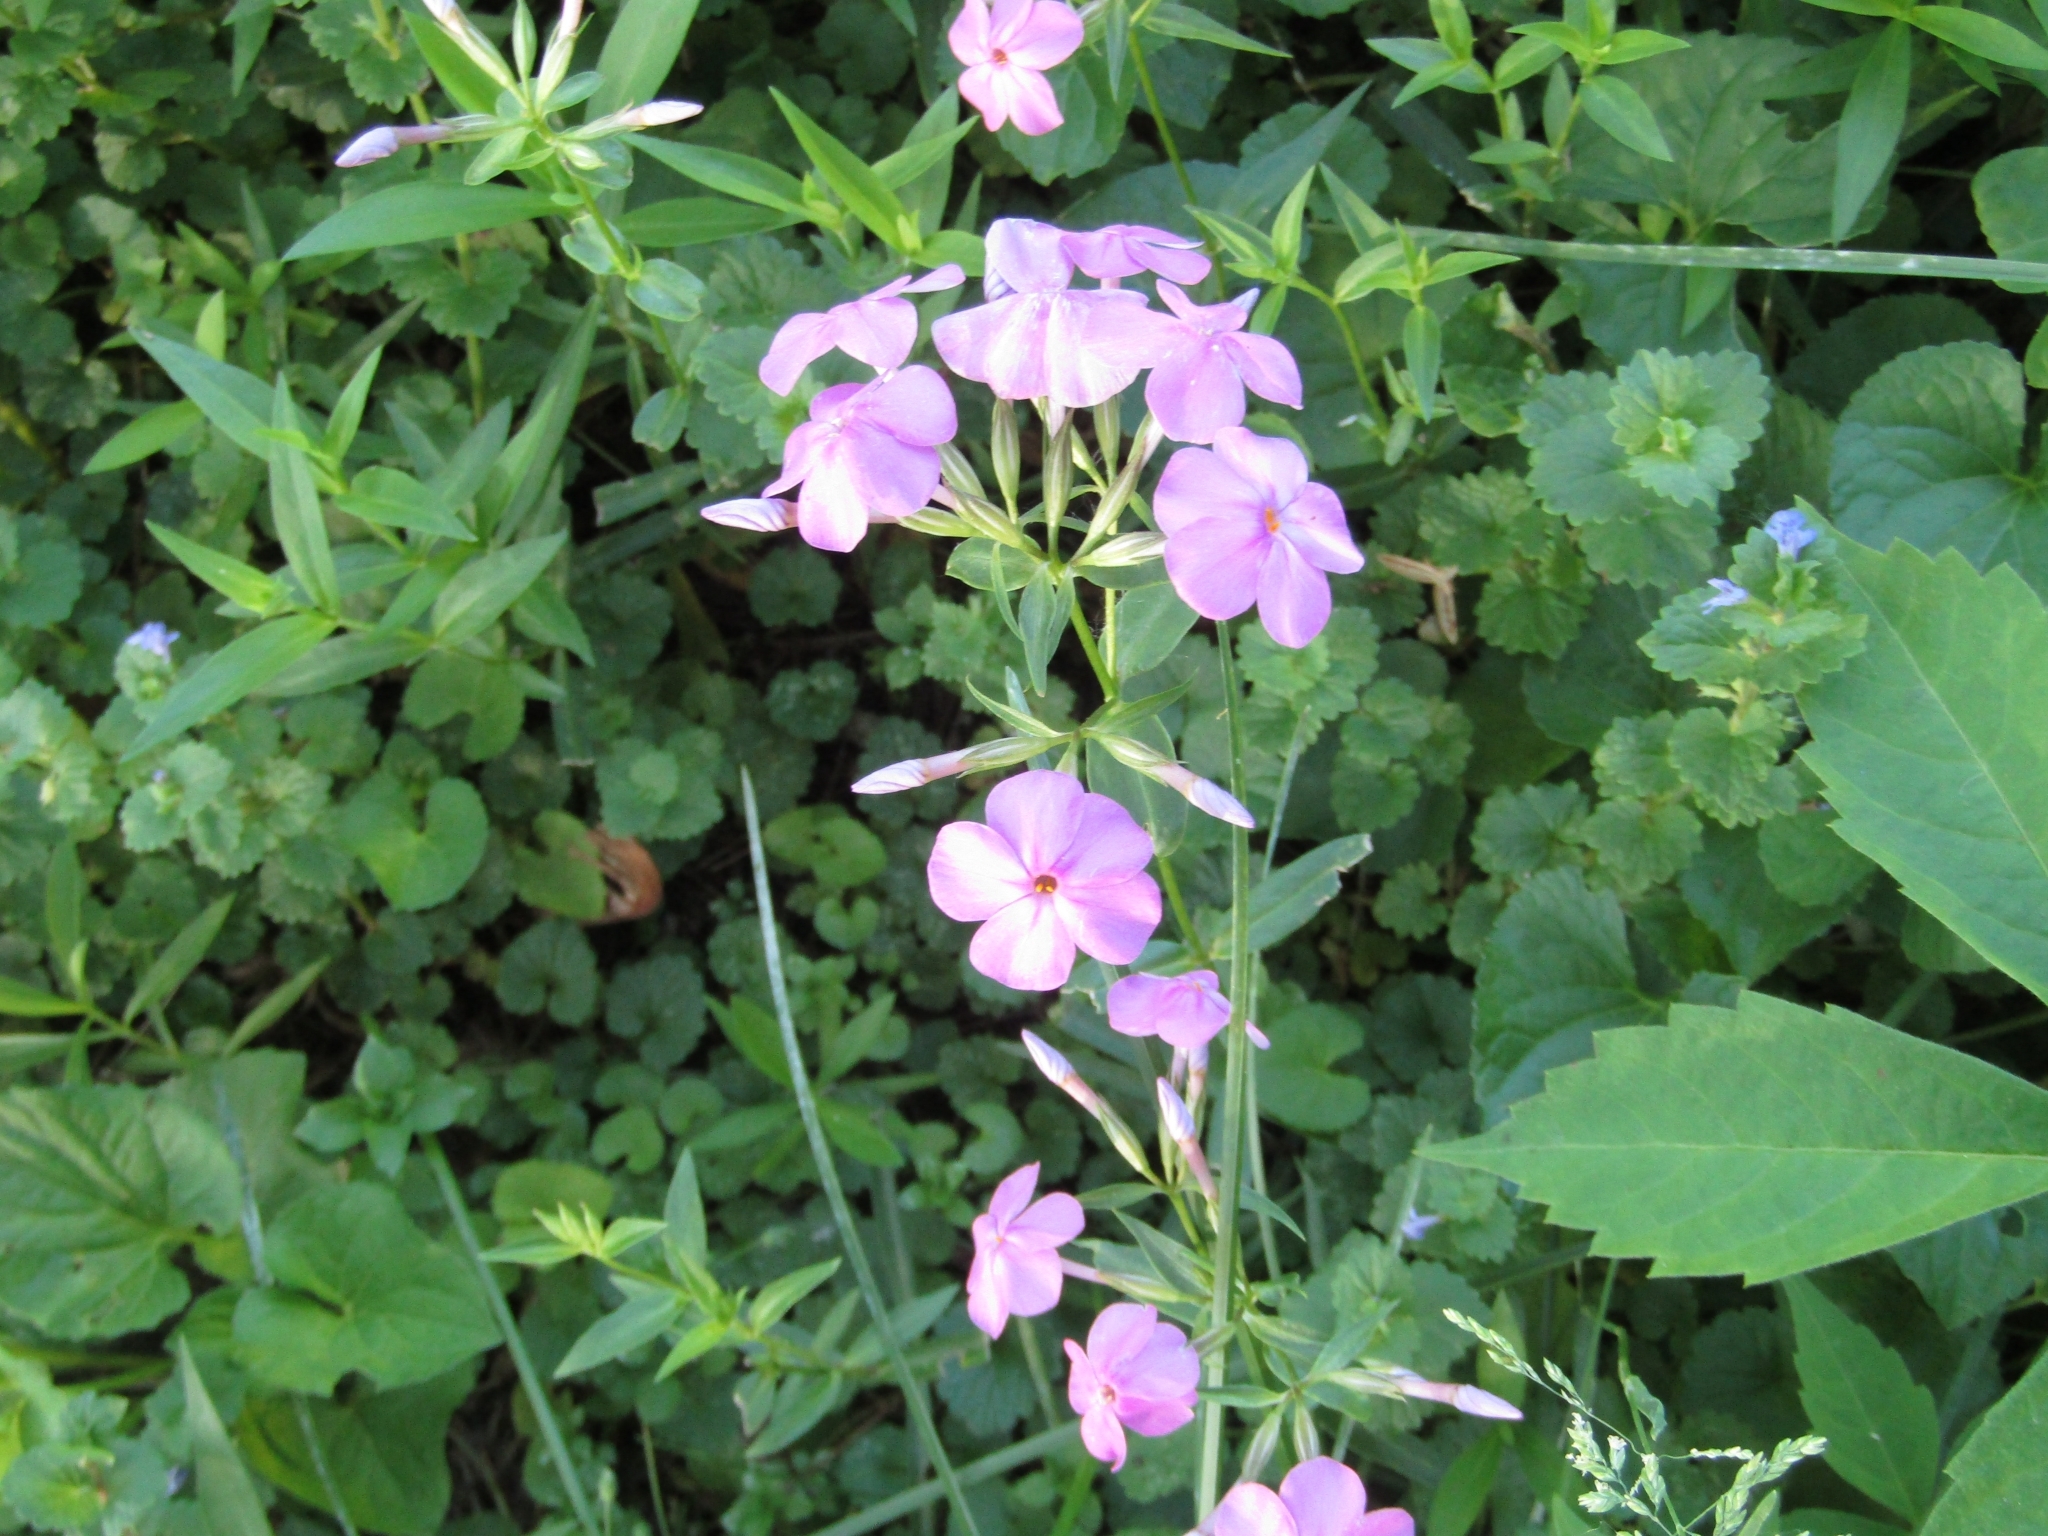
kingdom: Plantae
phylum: Tracheophyta
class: Magnoliopsida
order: Ericales
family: Polemoniaceae
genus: Phlox
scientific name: Phlox glaberrima
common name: Smooth phlox
